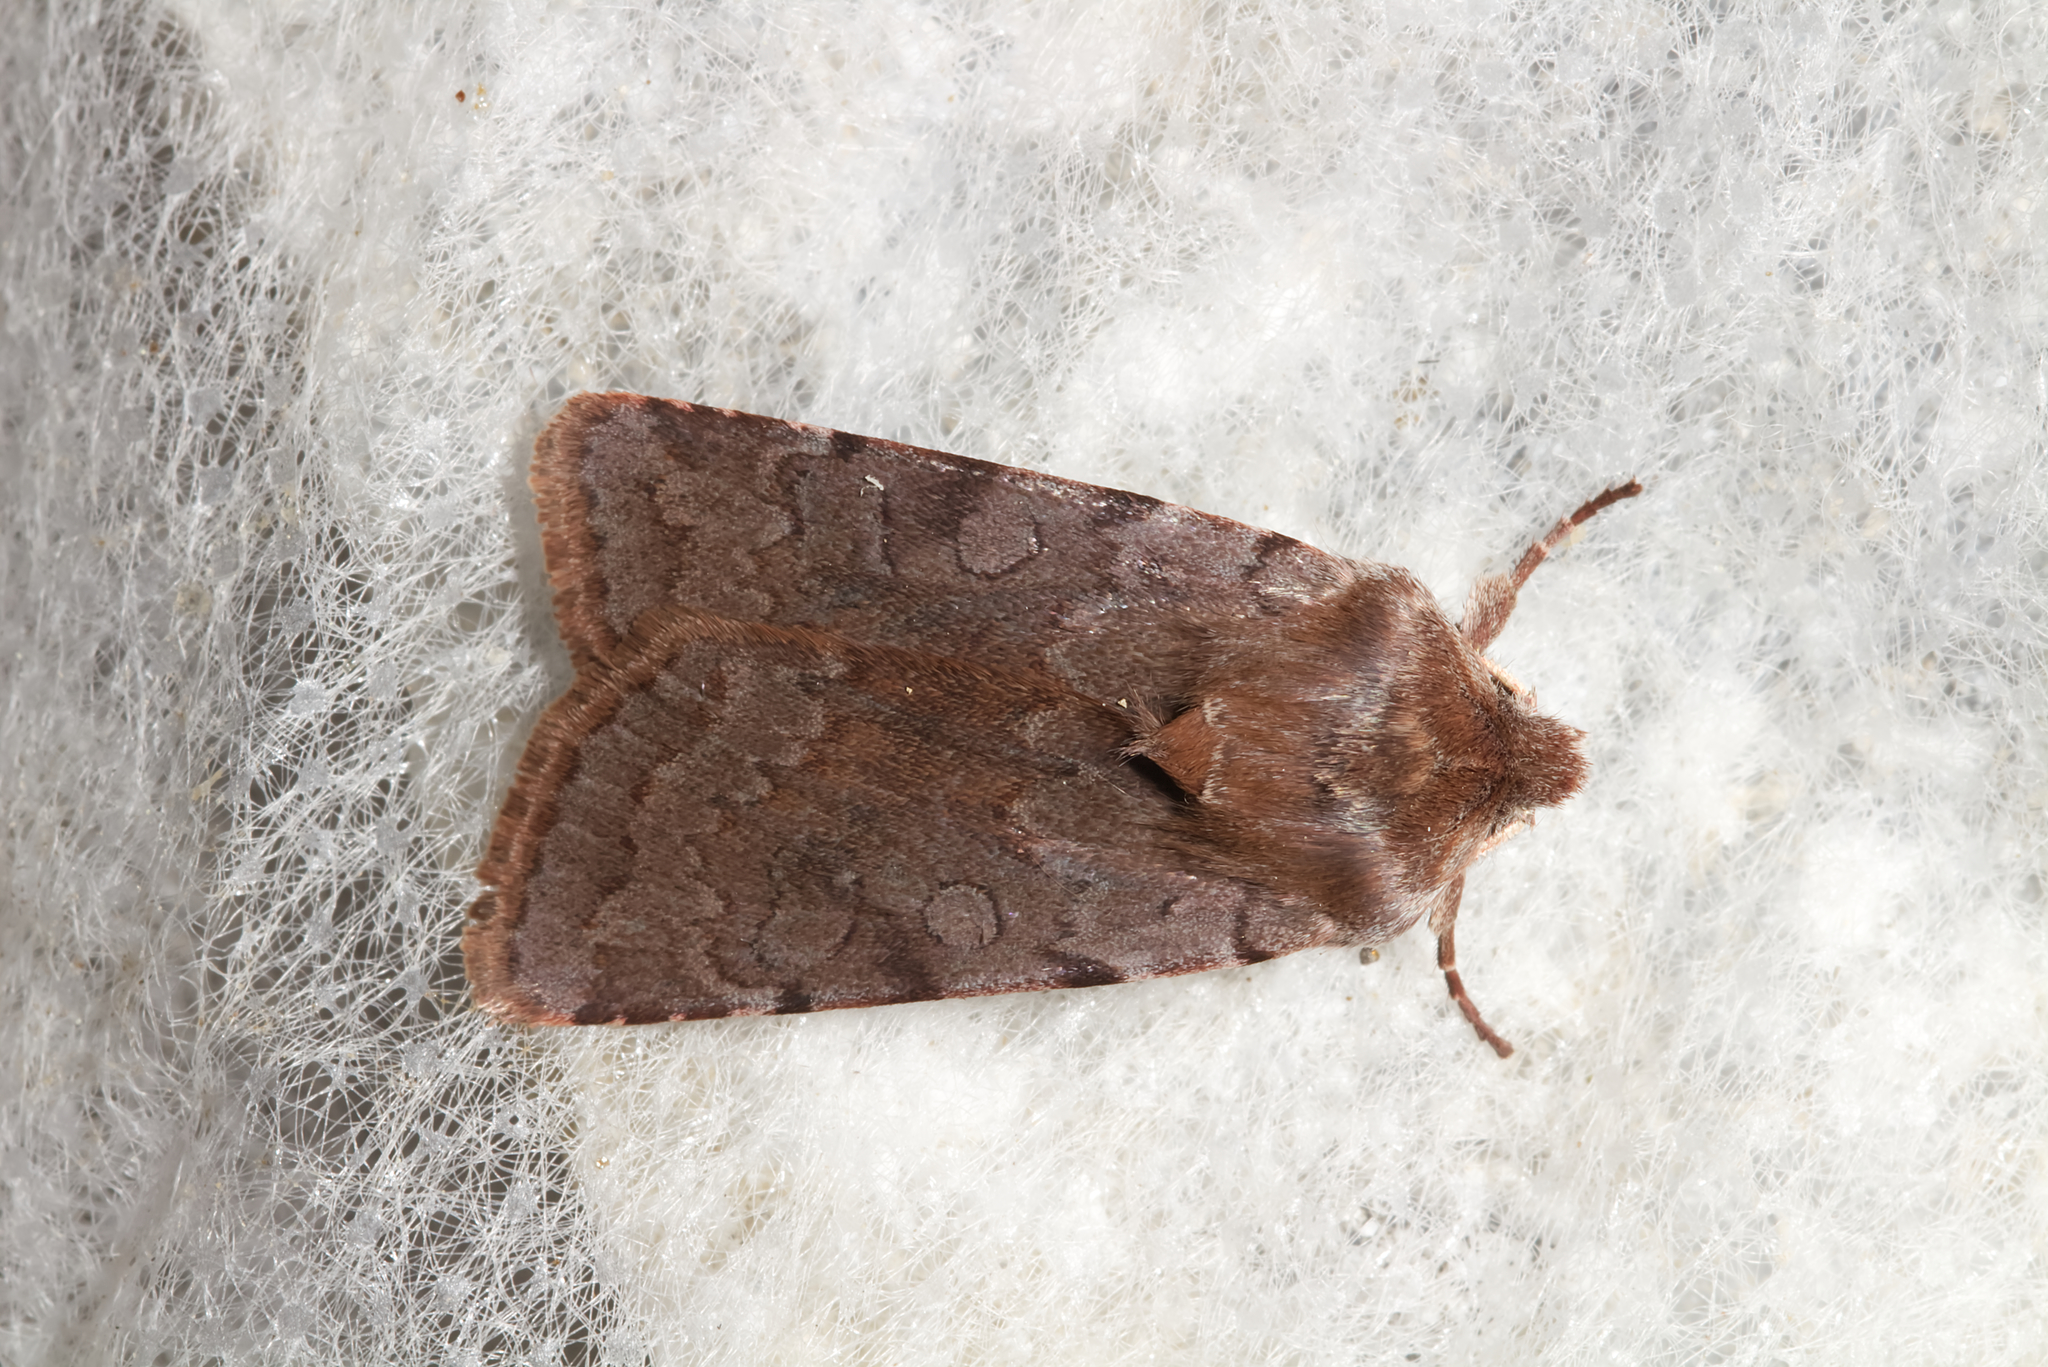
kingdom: Animalia
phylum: Arthropoda
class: Insecta
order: Lepidoptera
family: Noctuidae
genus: Cerastis
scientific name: Cerastis rubricosa
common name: Red chestnut
